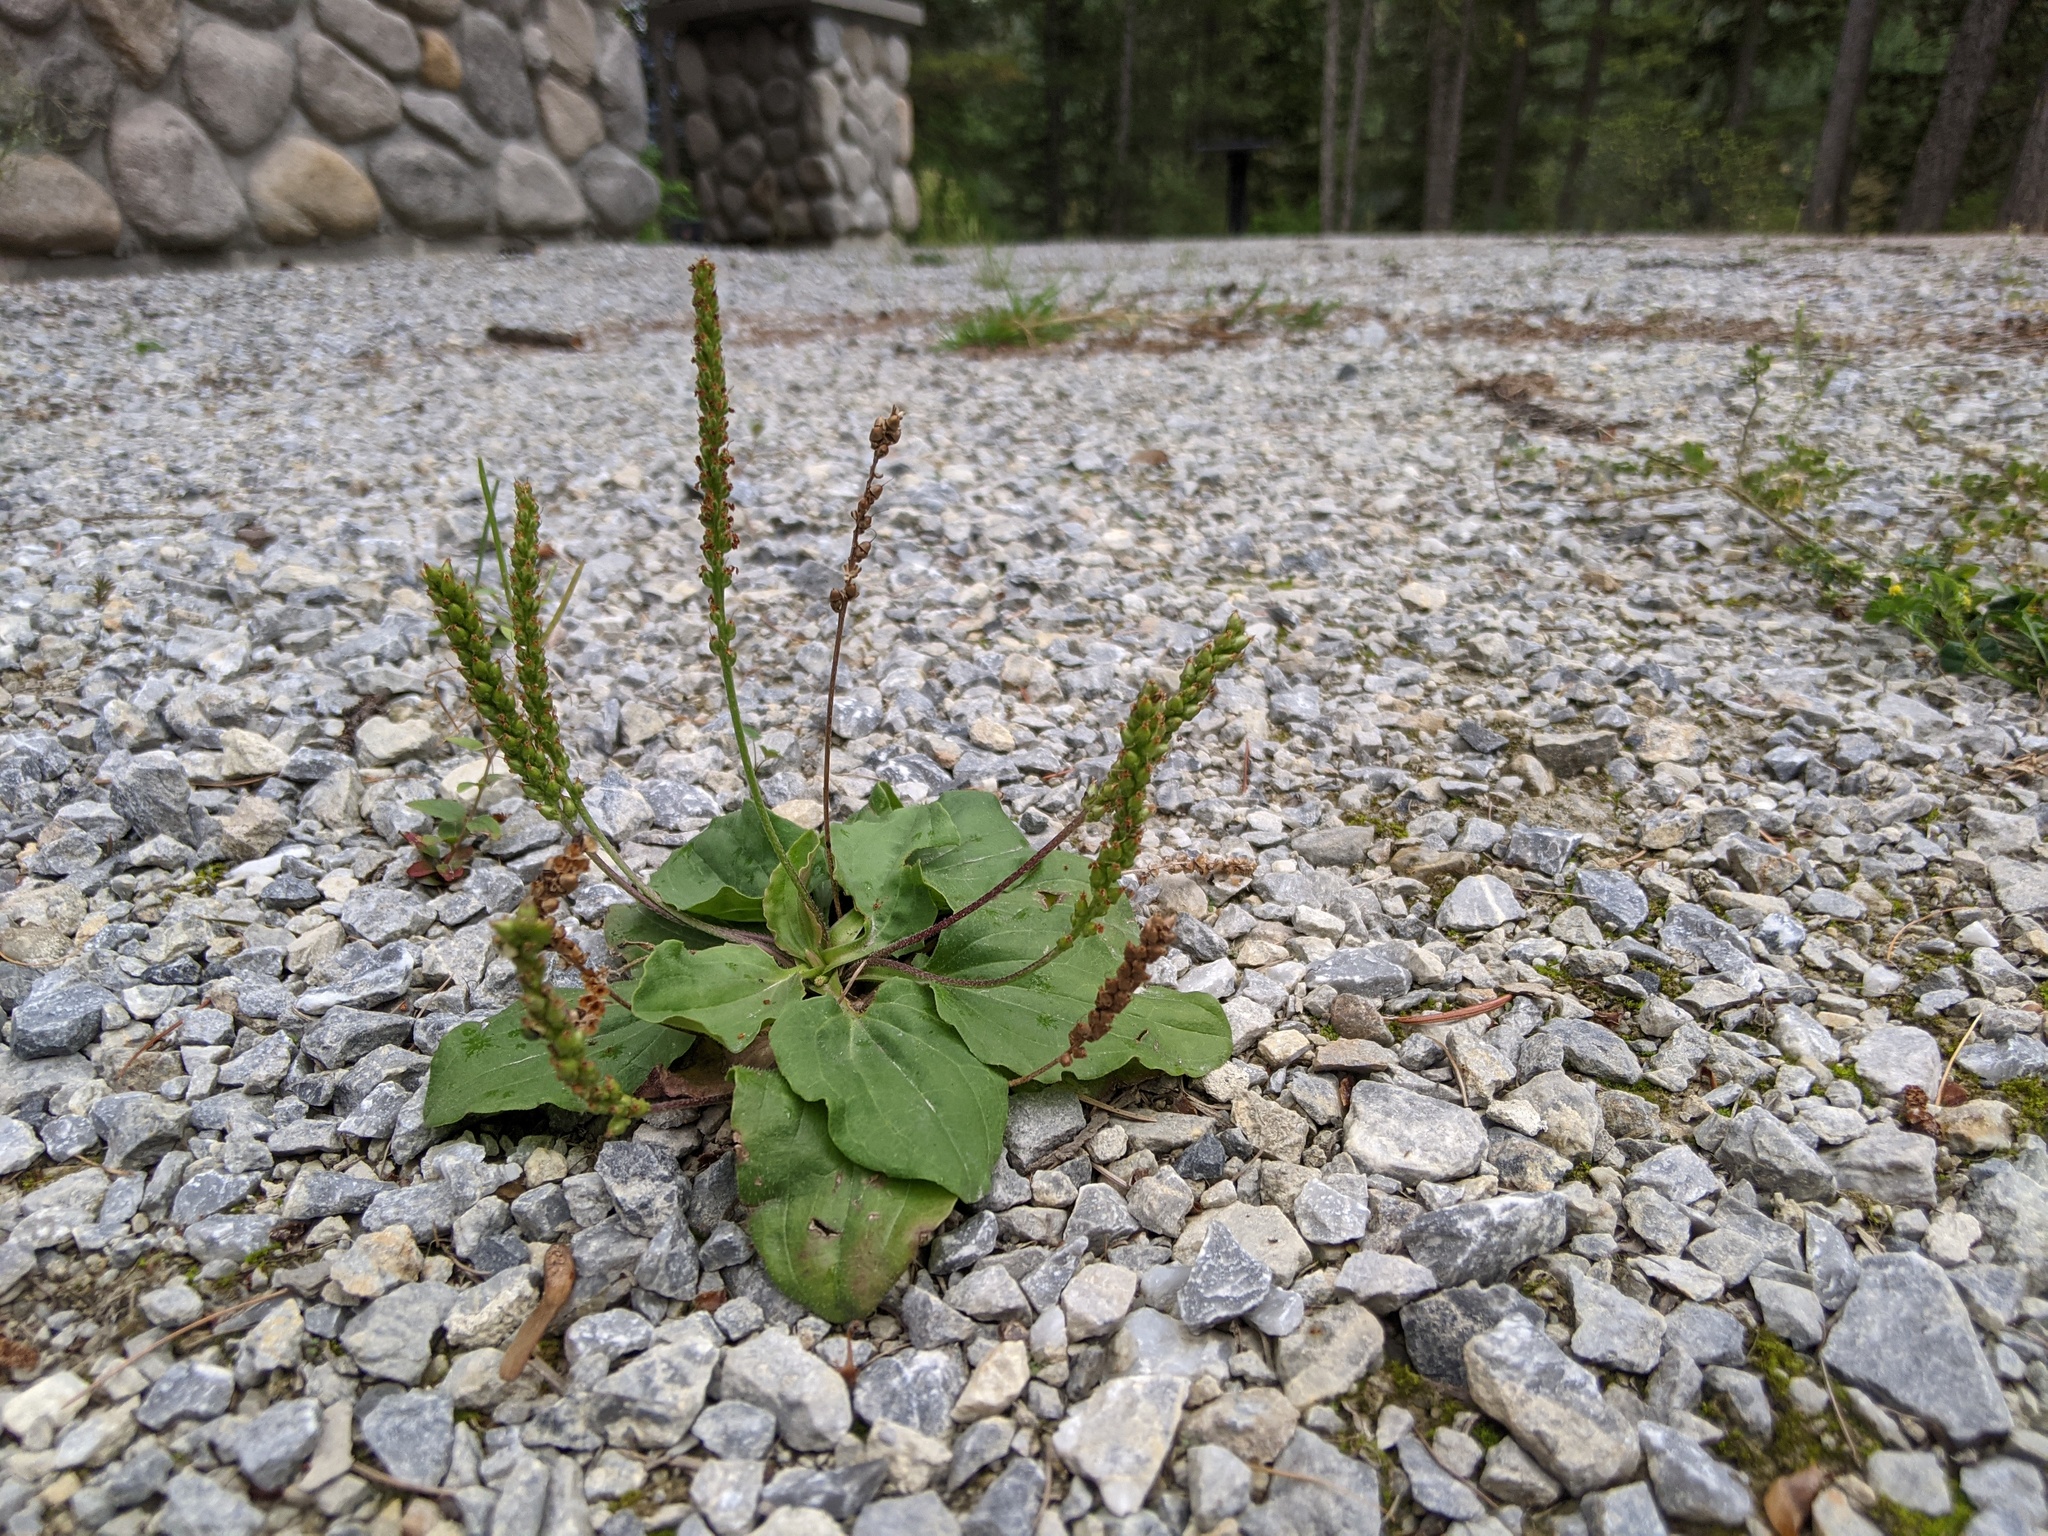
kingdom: Plantae
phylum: Tracheophyta
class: Magnoliopsida
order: Lamiales
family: Plantaginaceae
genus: Plantago
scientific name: Plantago major
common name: Common plantain
